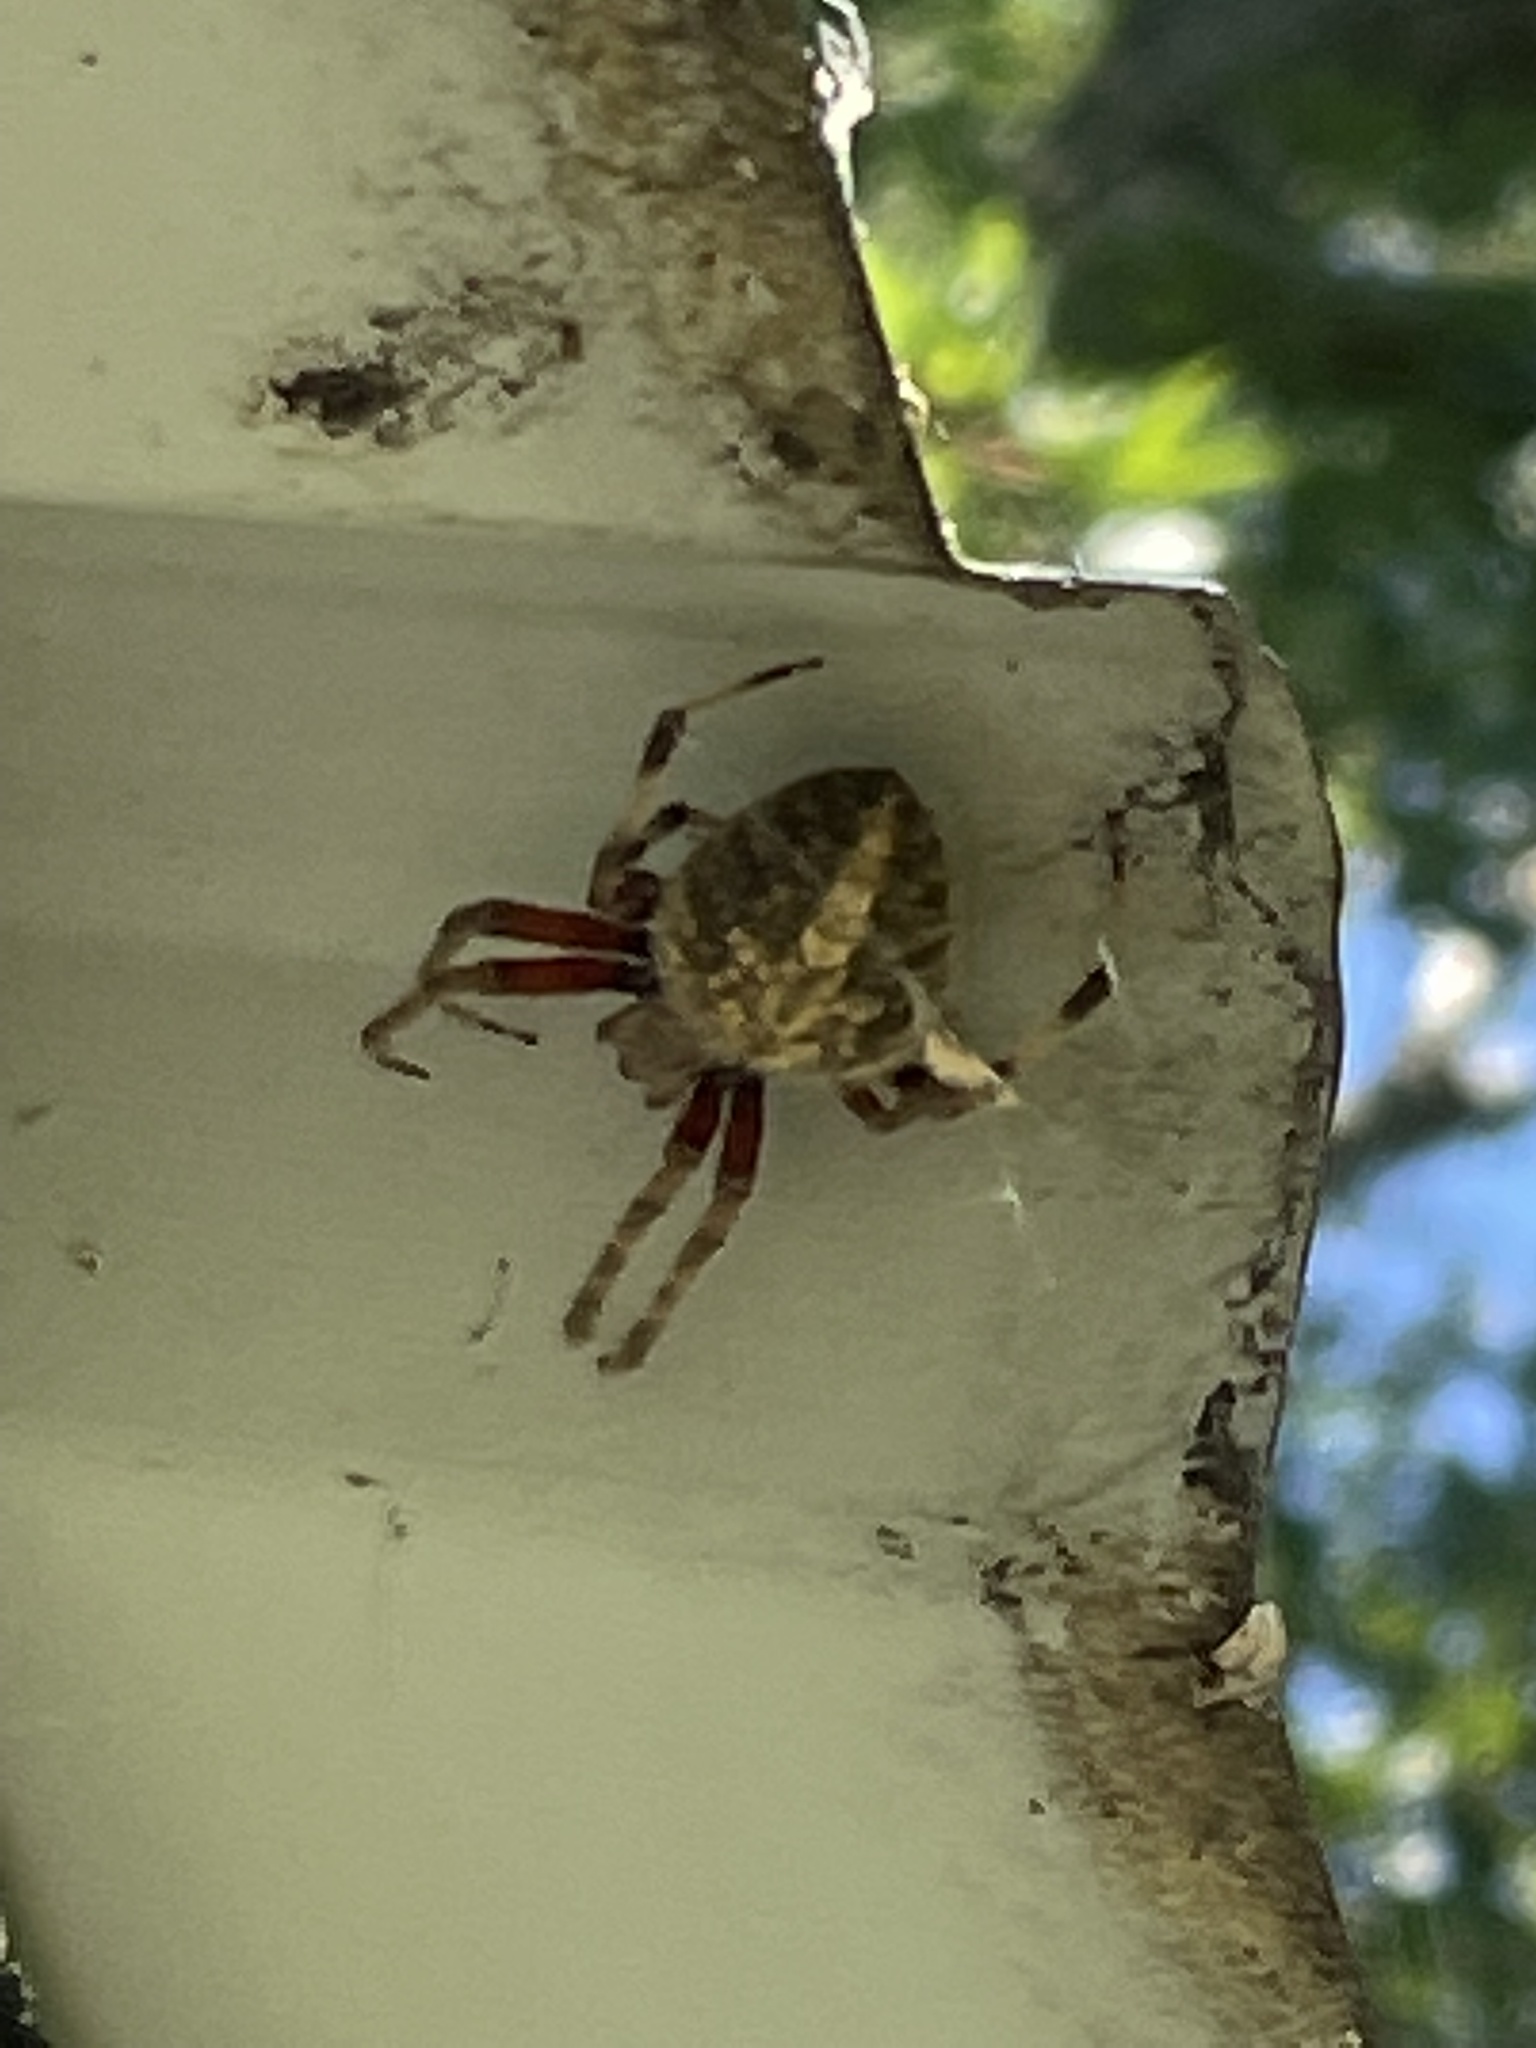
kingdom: Animalia
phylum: Arthropoda
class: Arachnida
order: Araneae
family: Araneidae
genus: Neoscona
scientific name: Neoscona domiciliorum
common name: Red-femured spotted orbweaver
